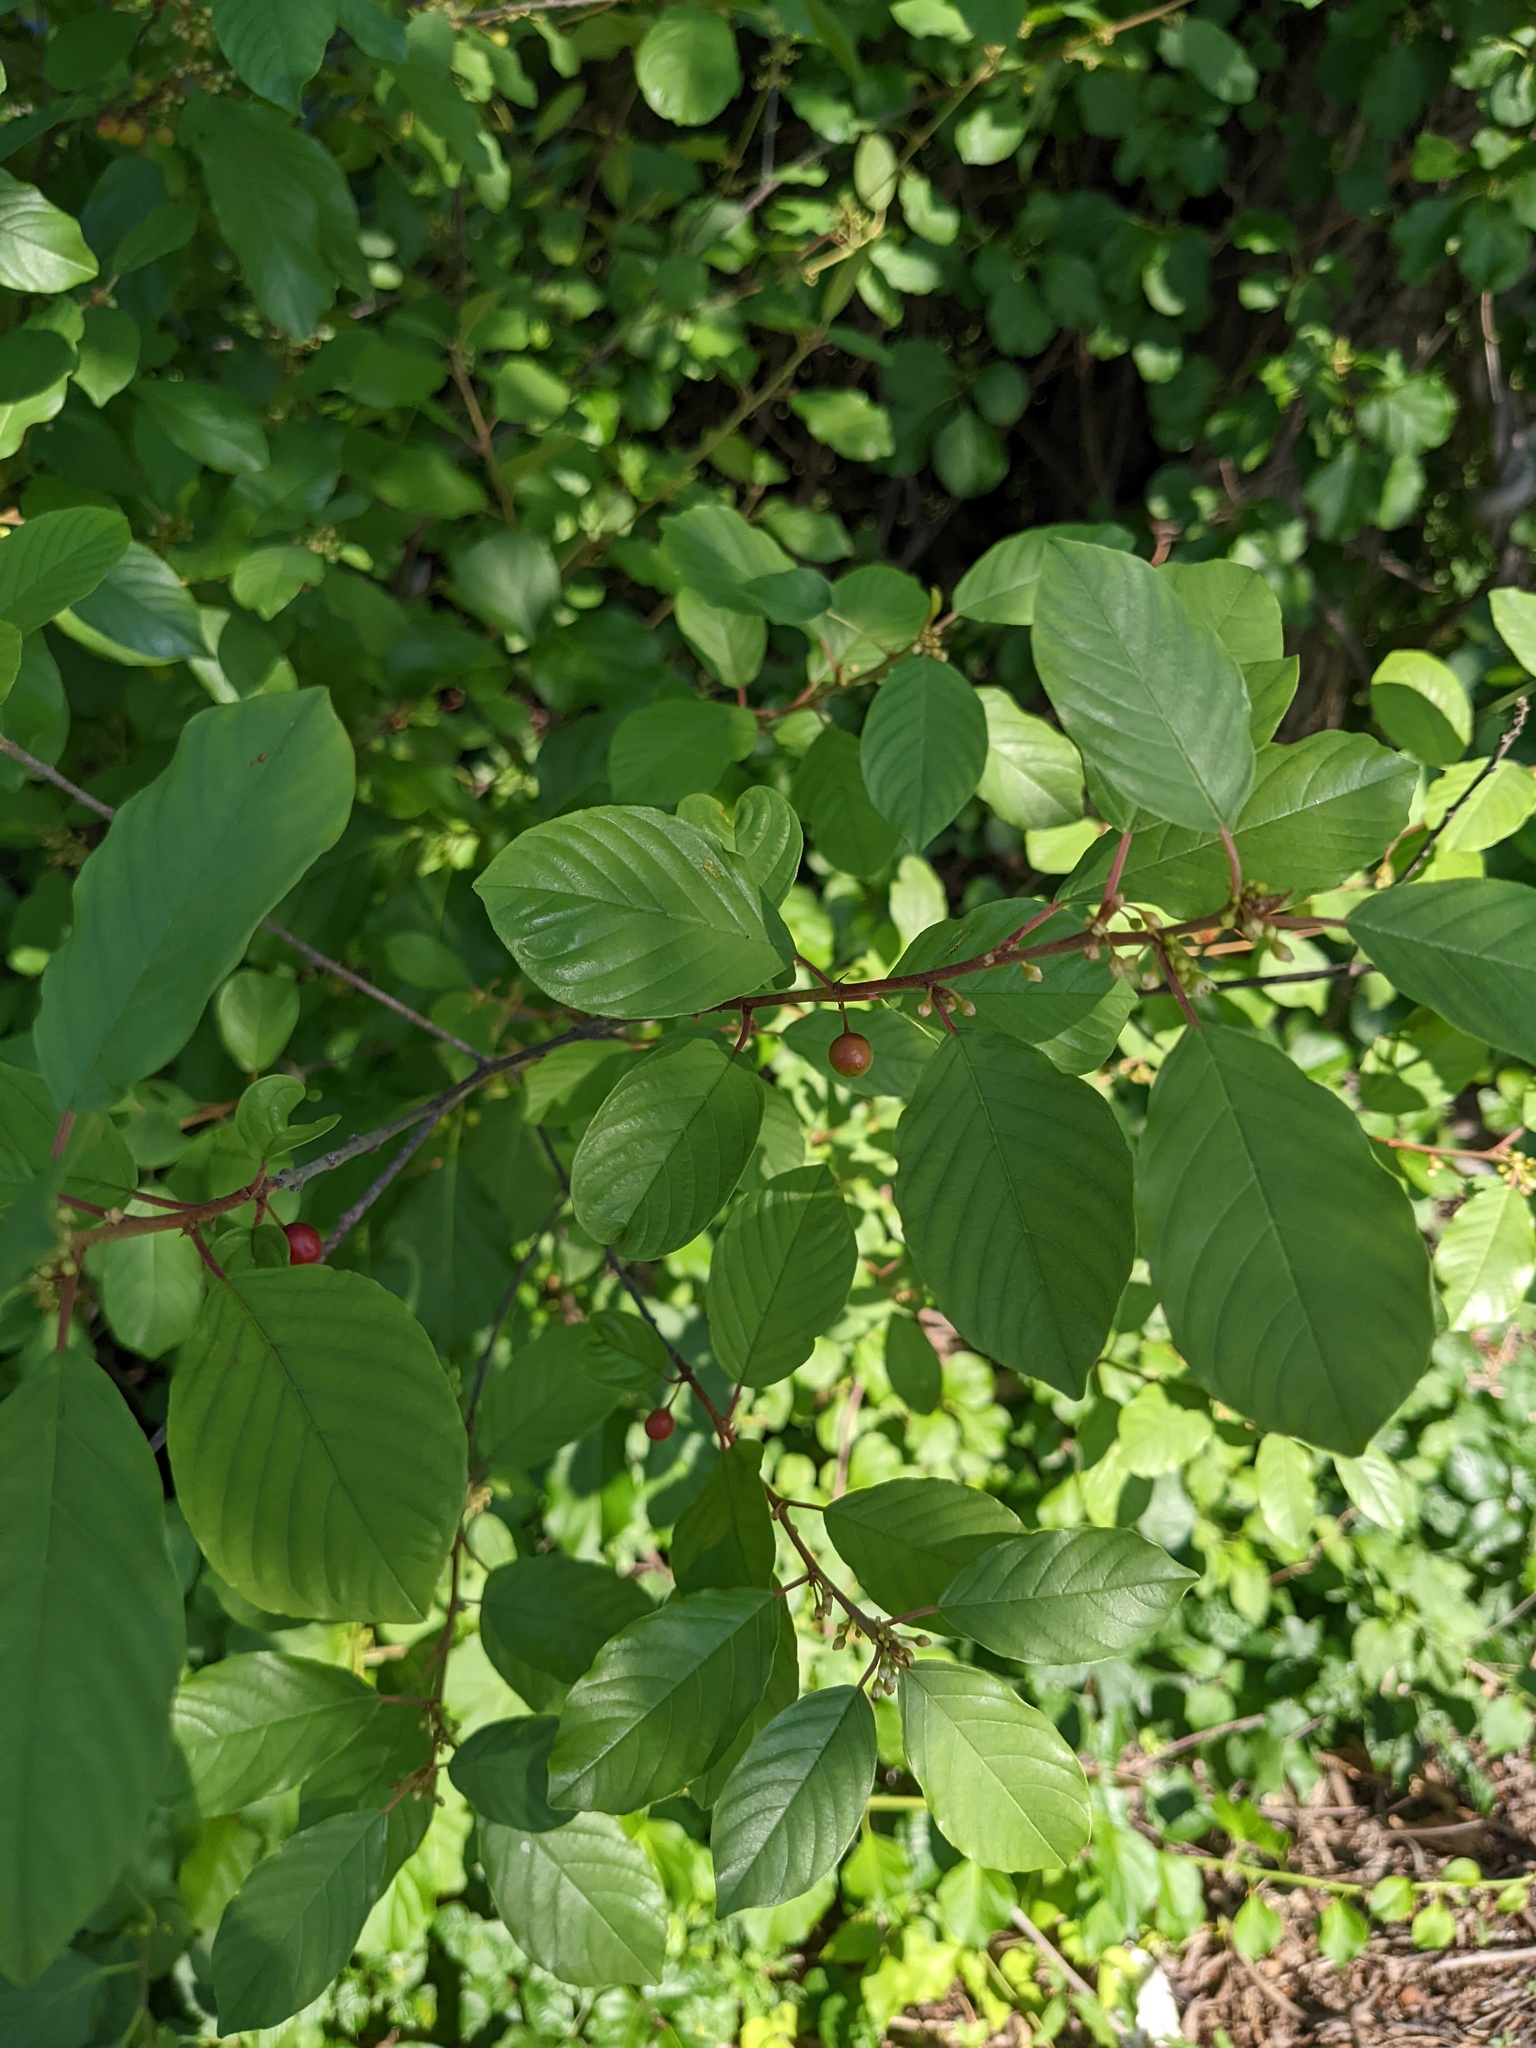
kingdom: Plantae
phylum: Tracheophyta
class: Magnoliopsida
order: Rosales
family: Rhamnaceae
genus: Frangula
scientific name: Frangula alnus
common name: Alder buckthorn
